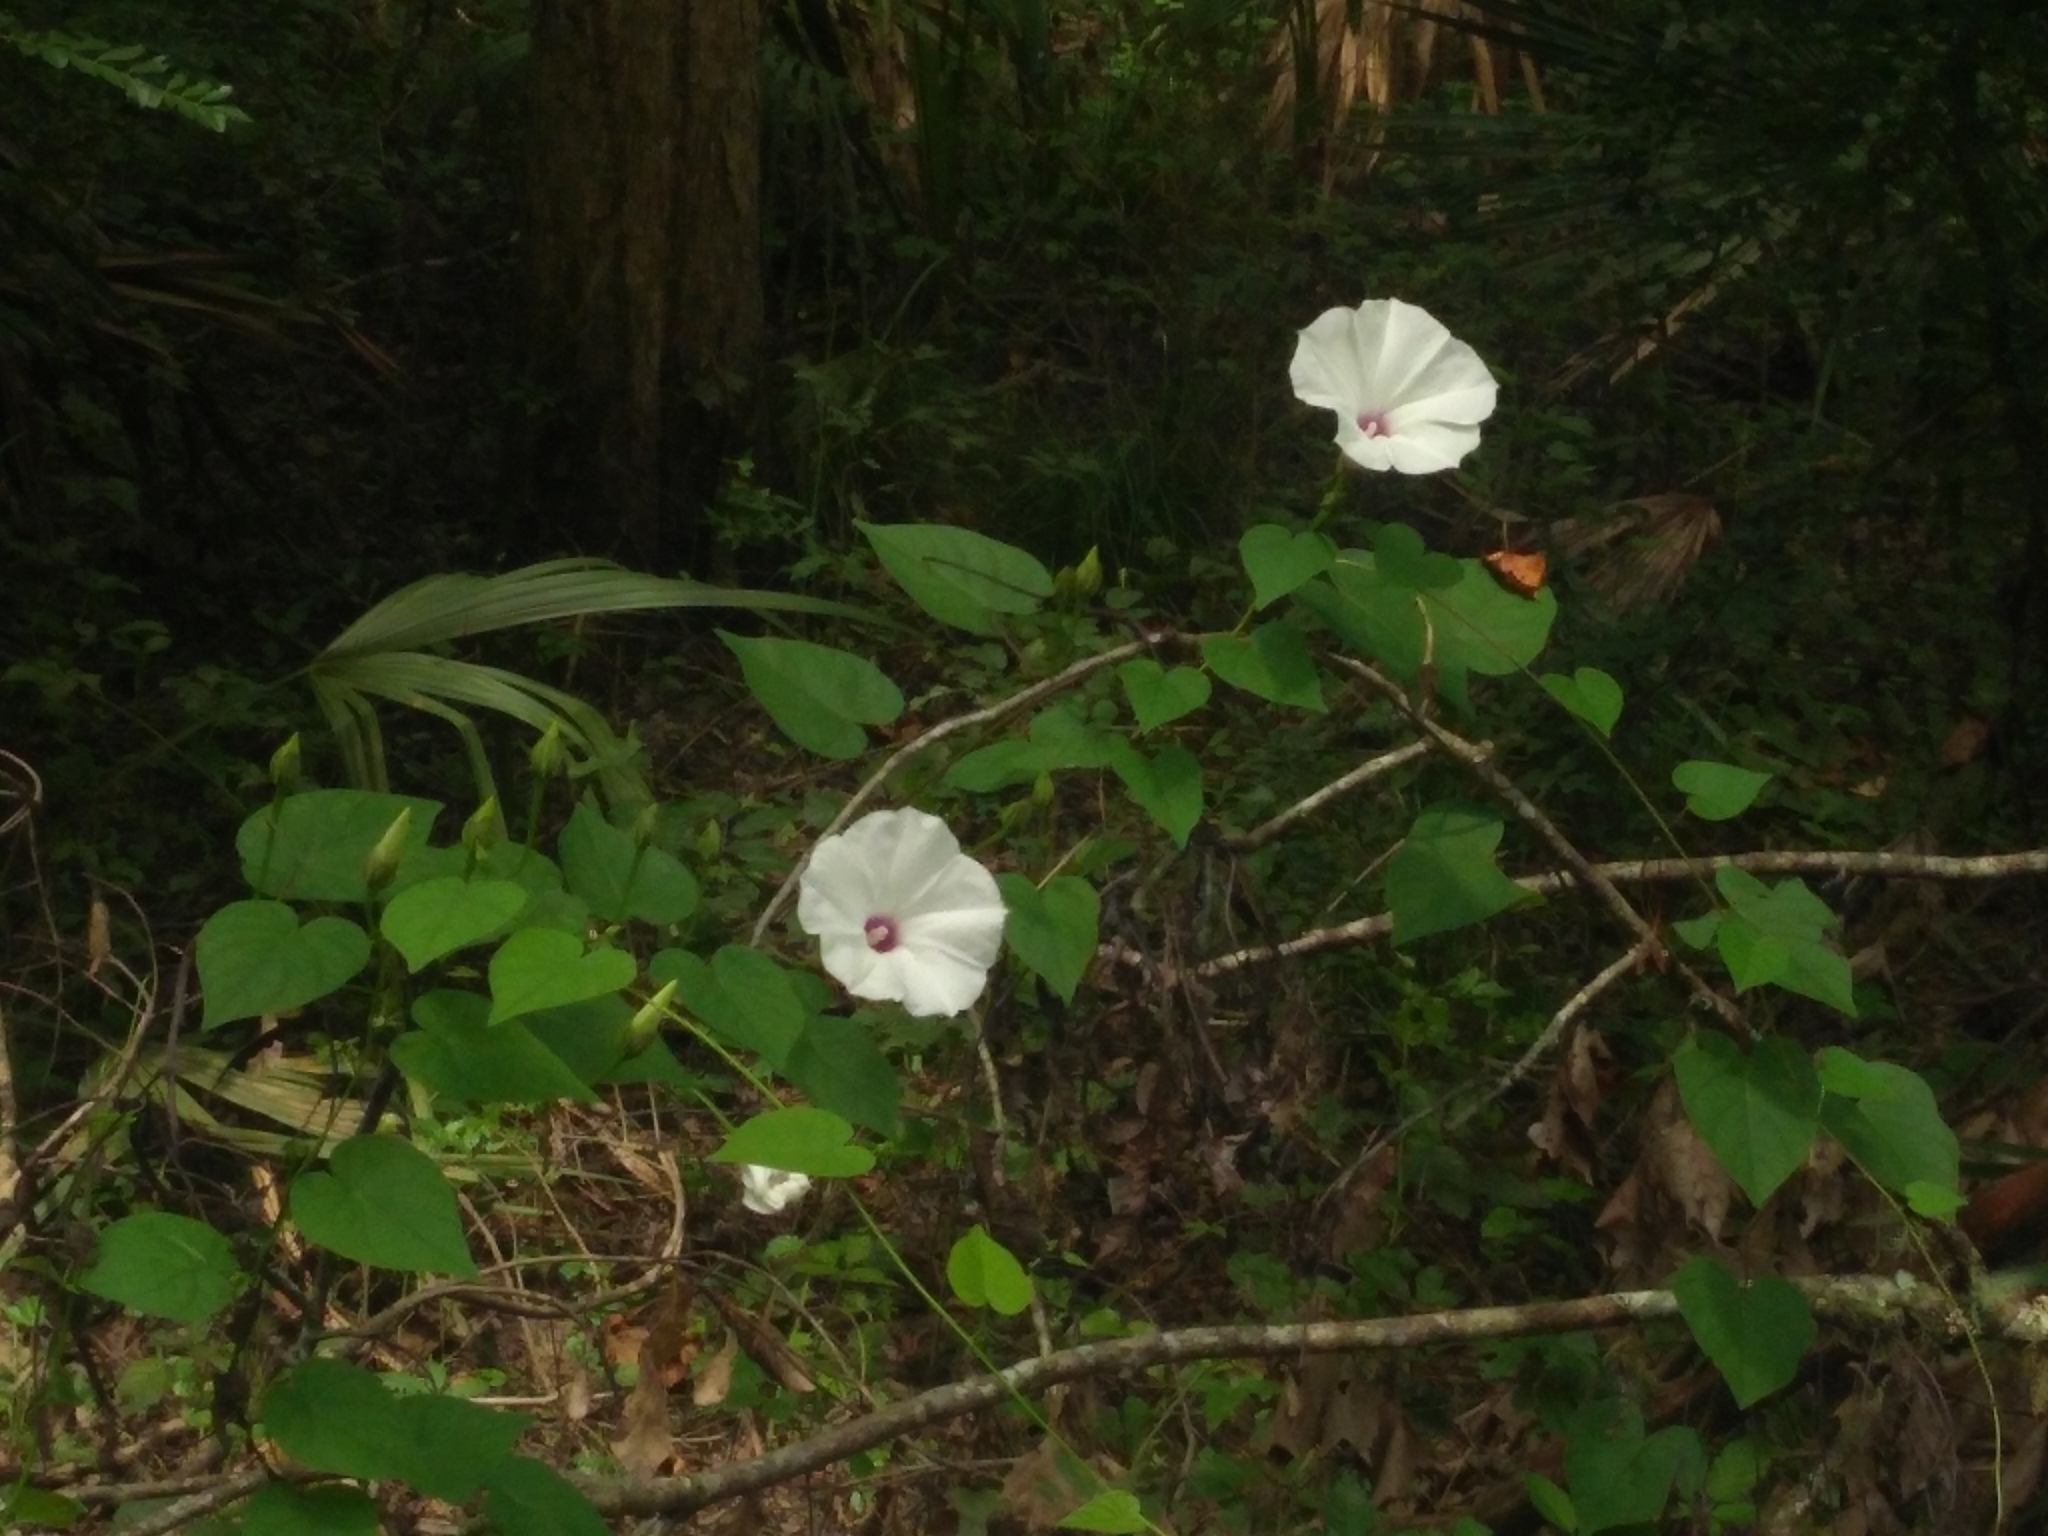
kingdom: Plantae
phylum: Tracheophyta
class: Magnoliopsida
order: Solanales
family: Convolvulaceae
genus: Ipomoea
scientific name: Ipomoea pandurata
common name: Man-of-the-earth
